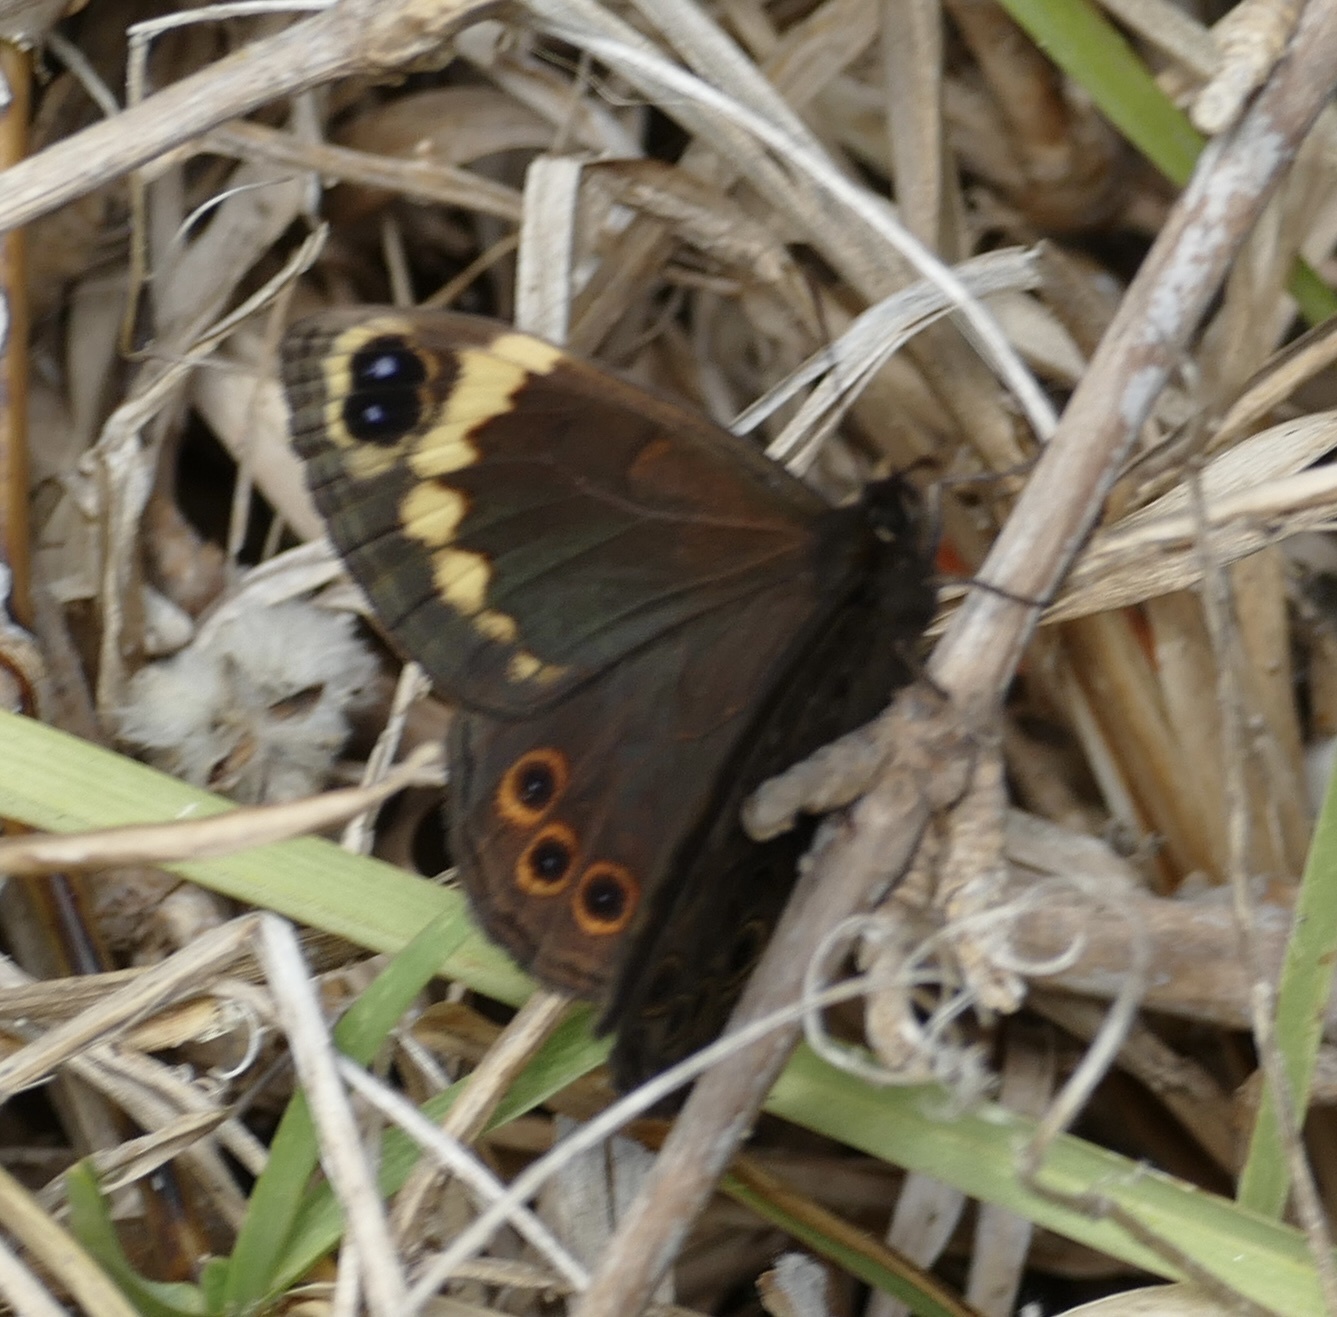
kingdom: Animalia
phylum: Arthropoda
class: Insecta
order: Lepidoptera
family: Nymphalidae
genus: Dira
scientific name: Dira clytus
